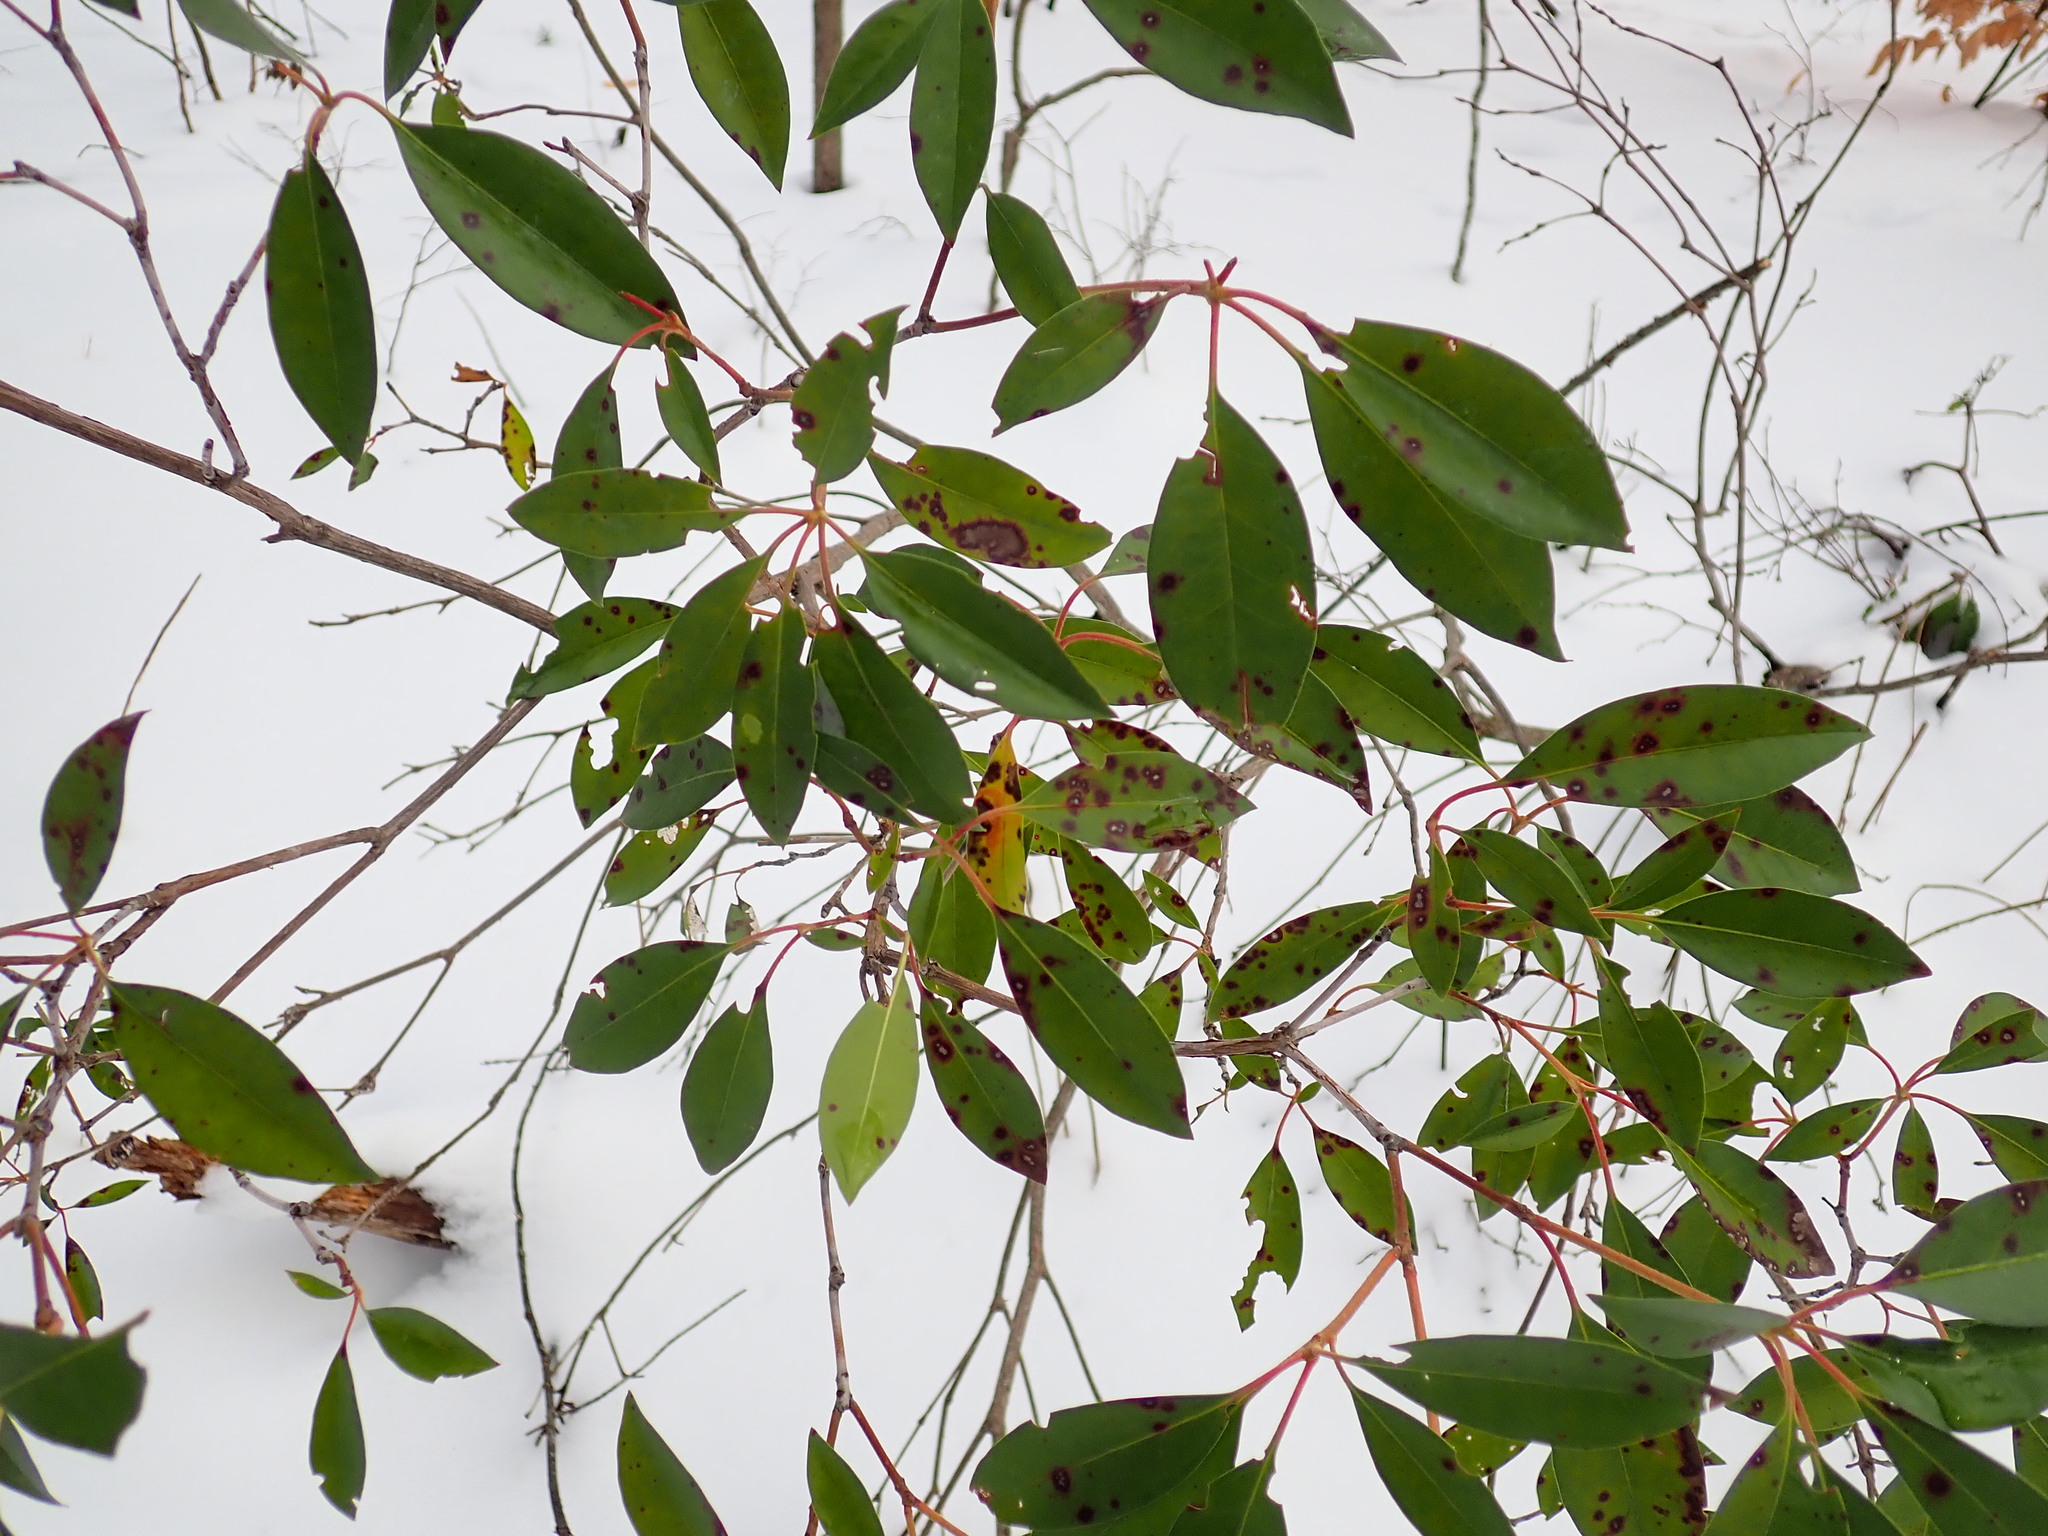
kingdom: Plantae
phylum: Tracheophyta
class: Magnoliopsida
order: Ericales
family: Ericaceae
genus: Kalmia
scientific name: Kalmia latifolia
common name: Mountain-laurel
